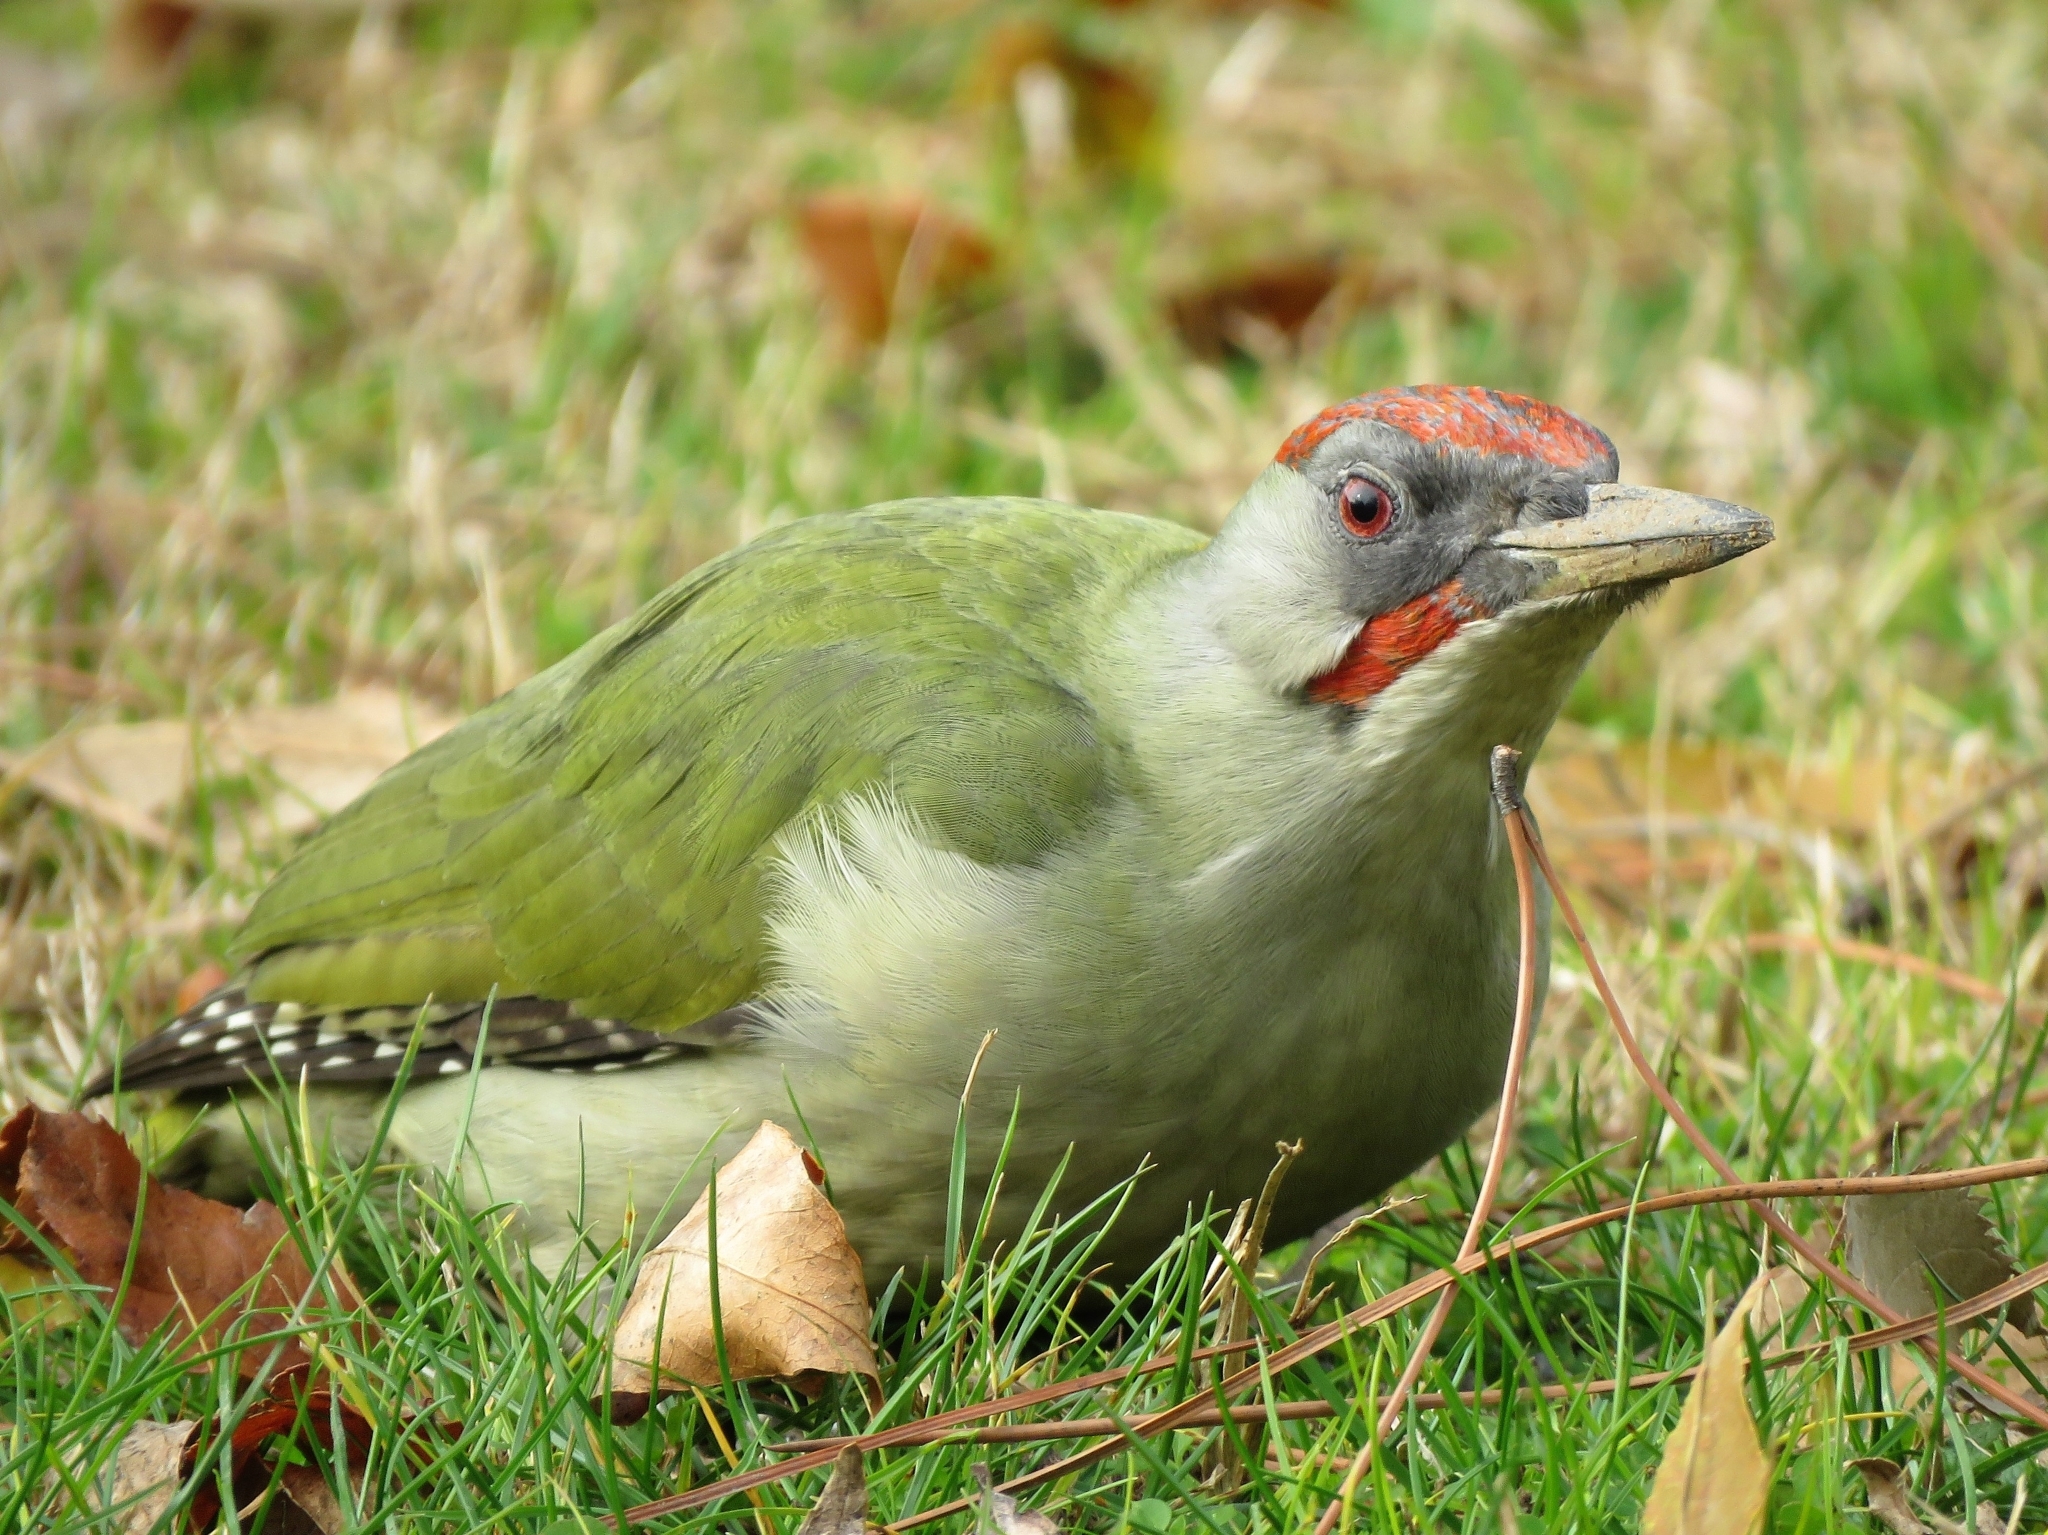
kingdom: Animalia
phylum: Chordata
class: Aves
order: Piciformes
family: Picidae
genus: Picus
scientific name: Picus sharpei
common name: Iberian green woodpecker
